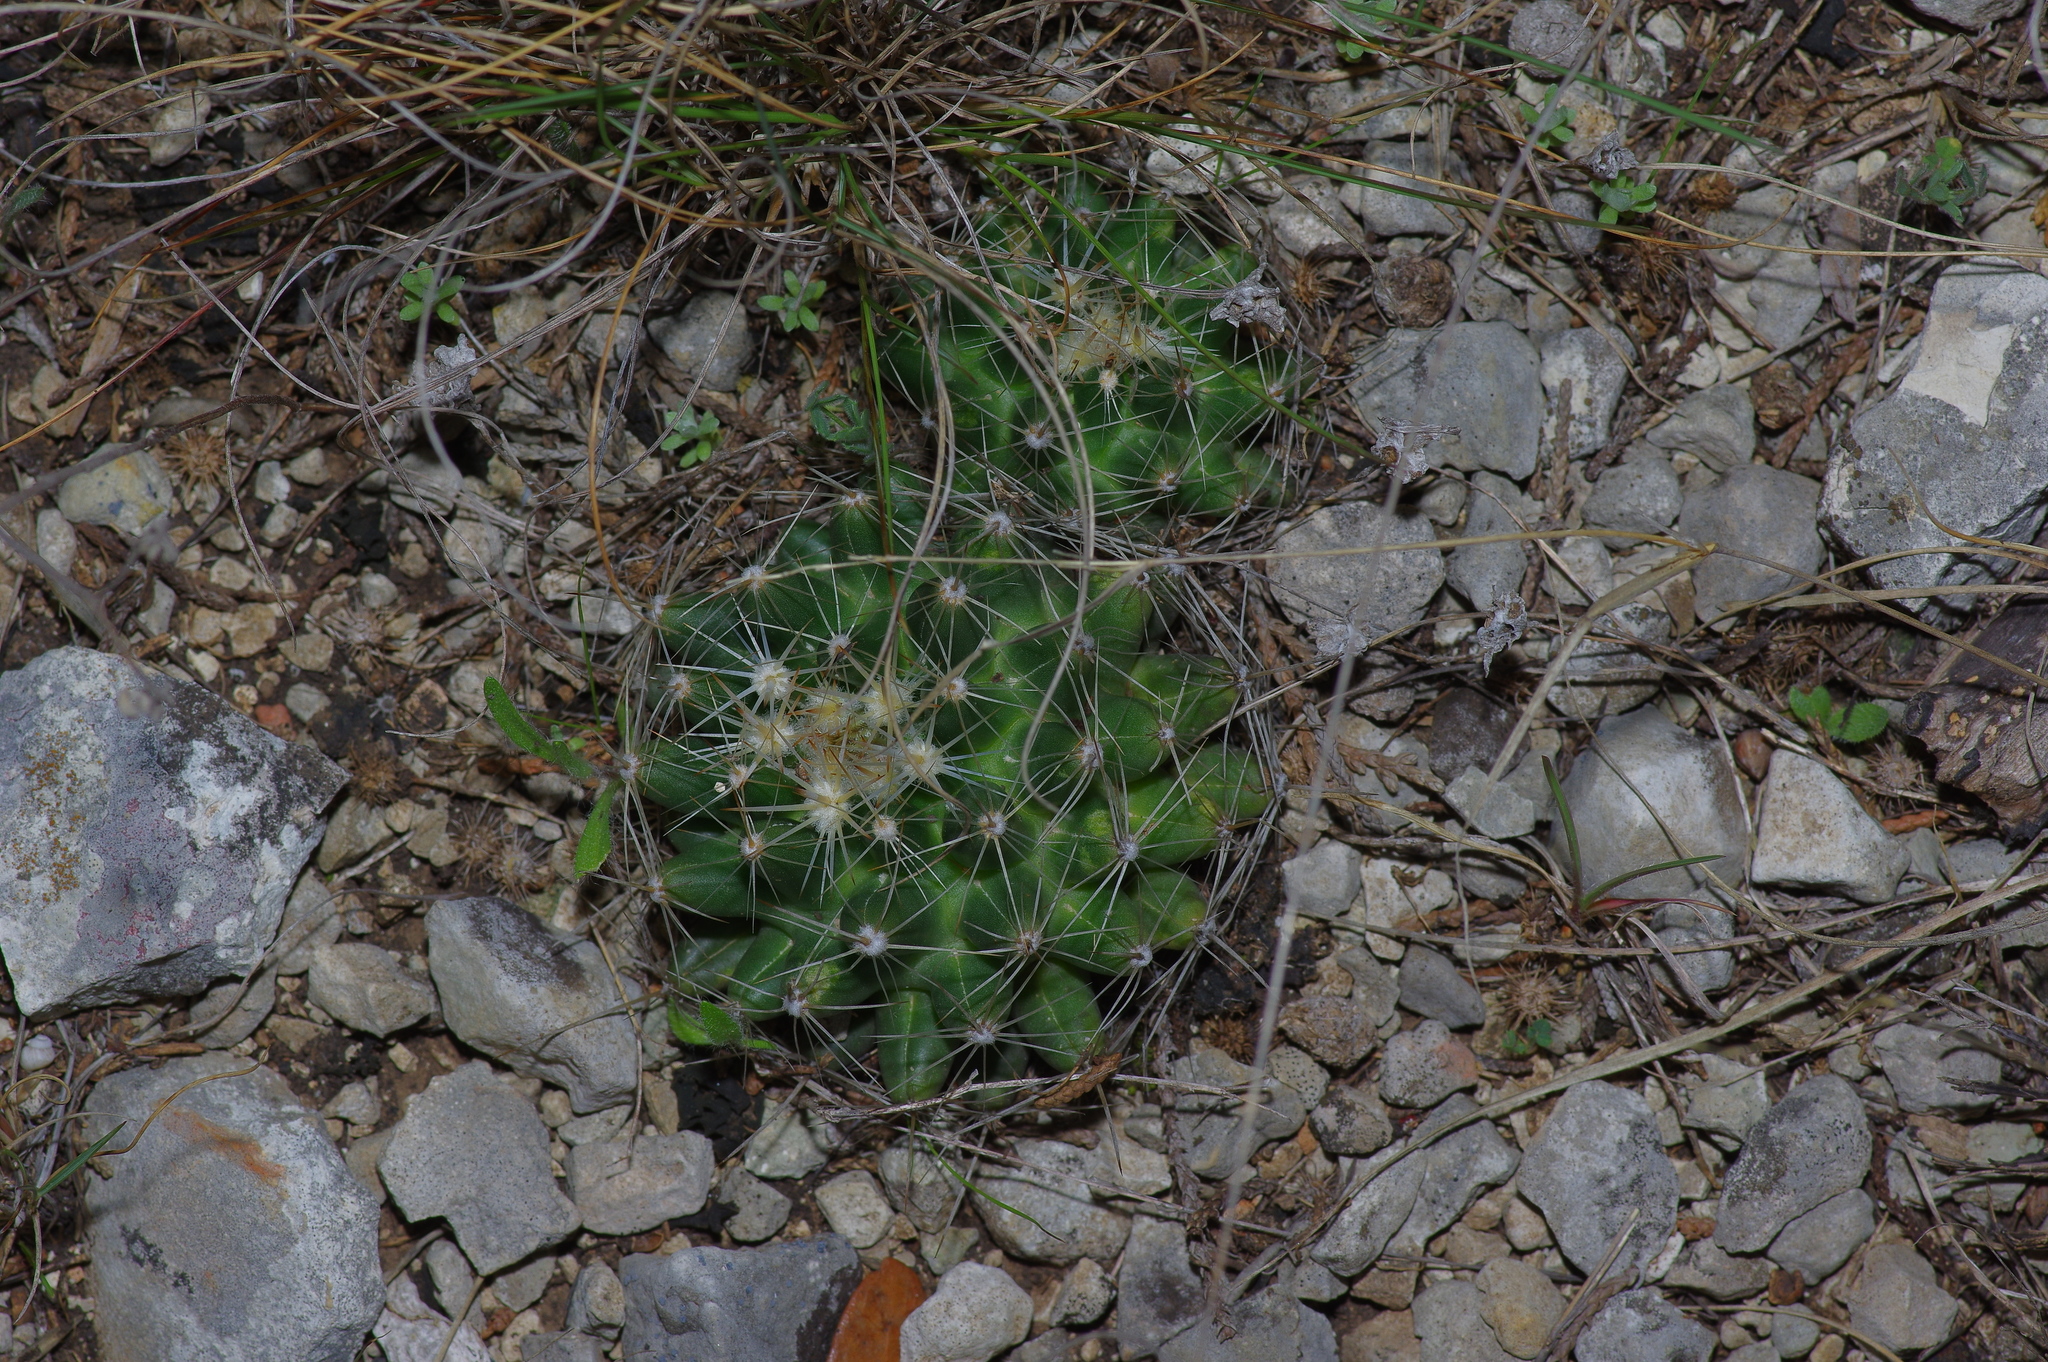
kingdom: Plantae
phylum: Tracheophyta
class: Magnoliopsida
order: Caryophyllales
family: Cactaceae
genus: Coryphantha
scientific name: Coryphantha sulcata
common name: Finger cactus
